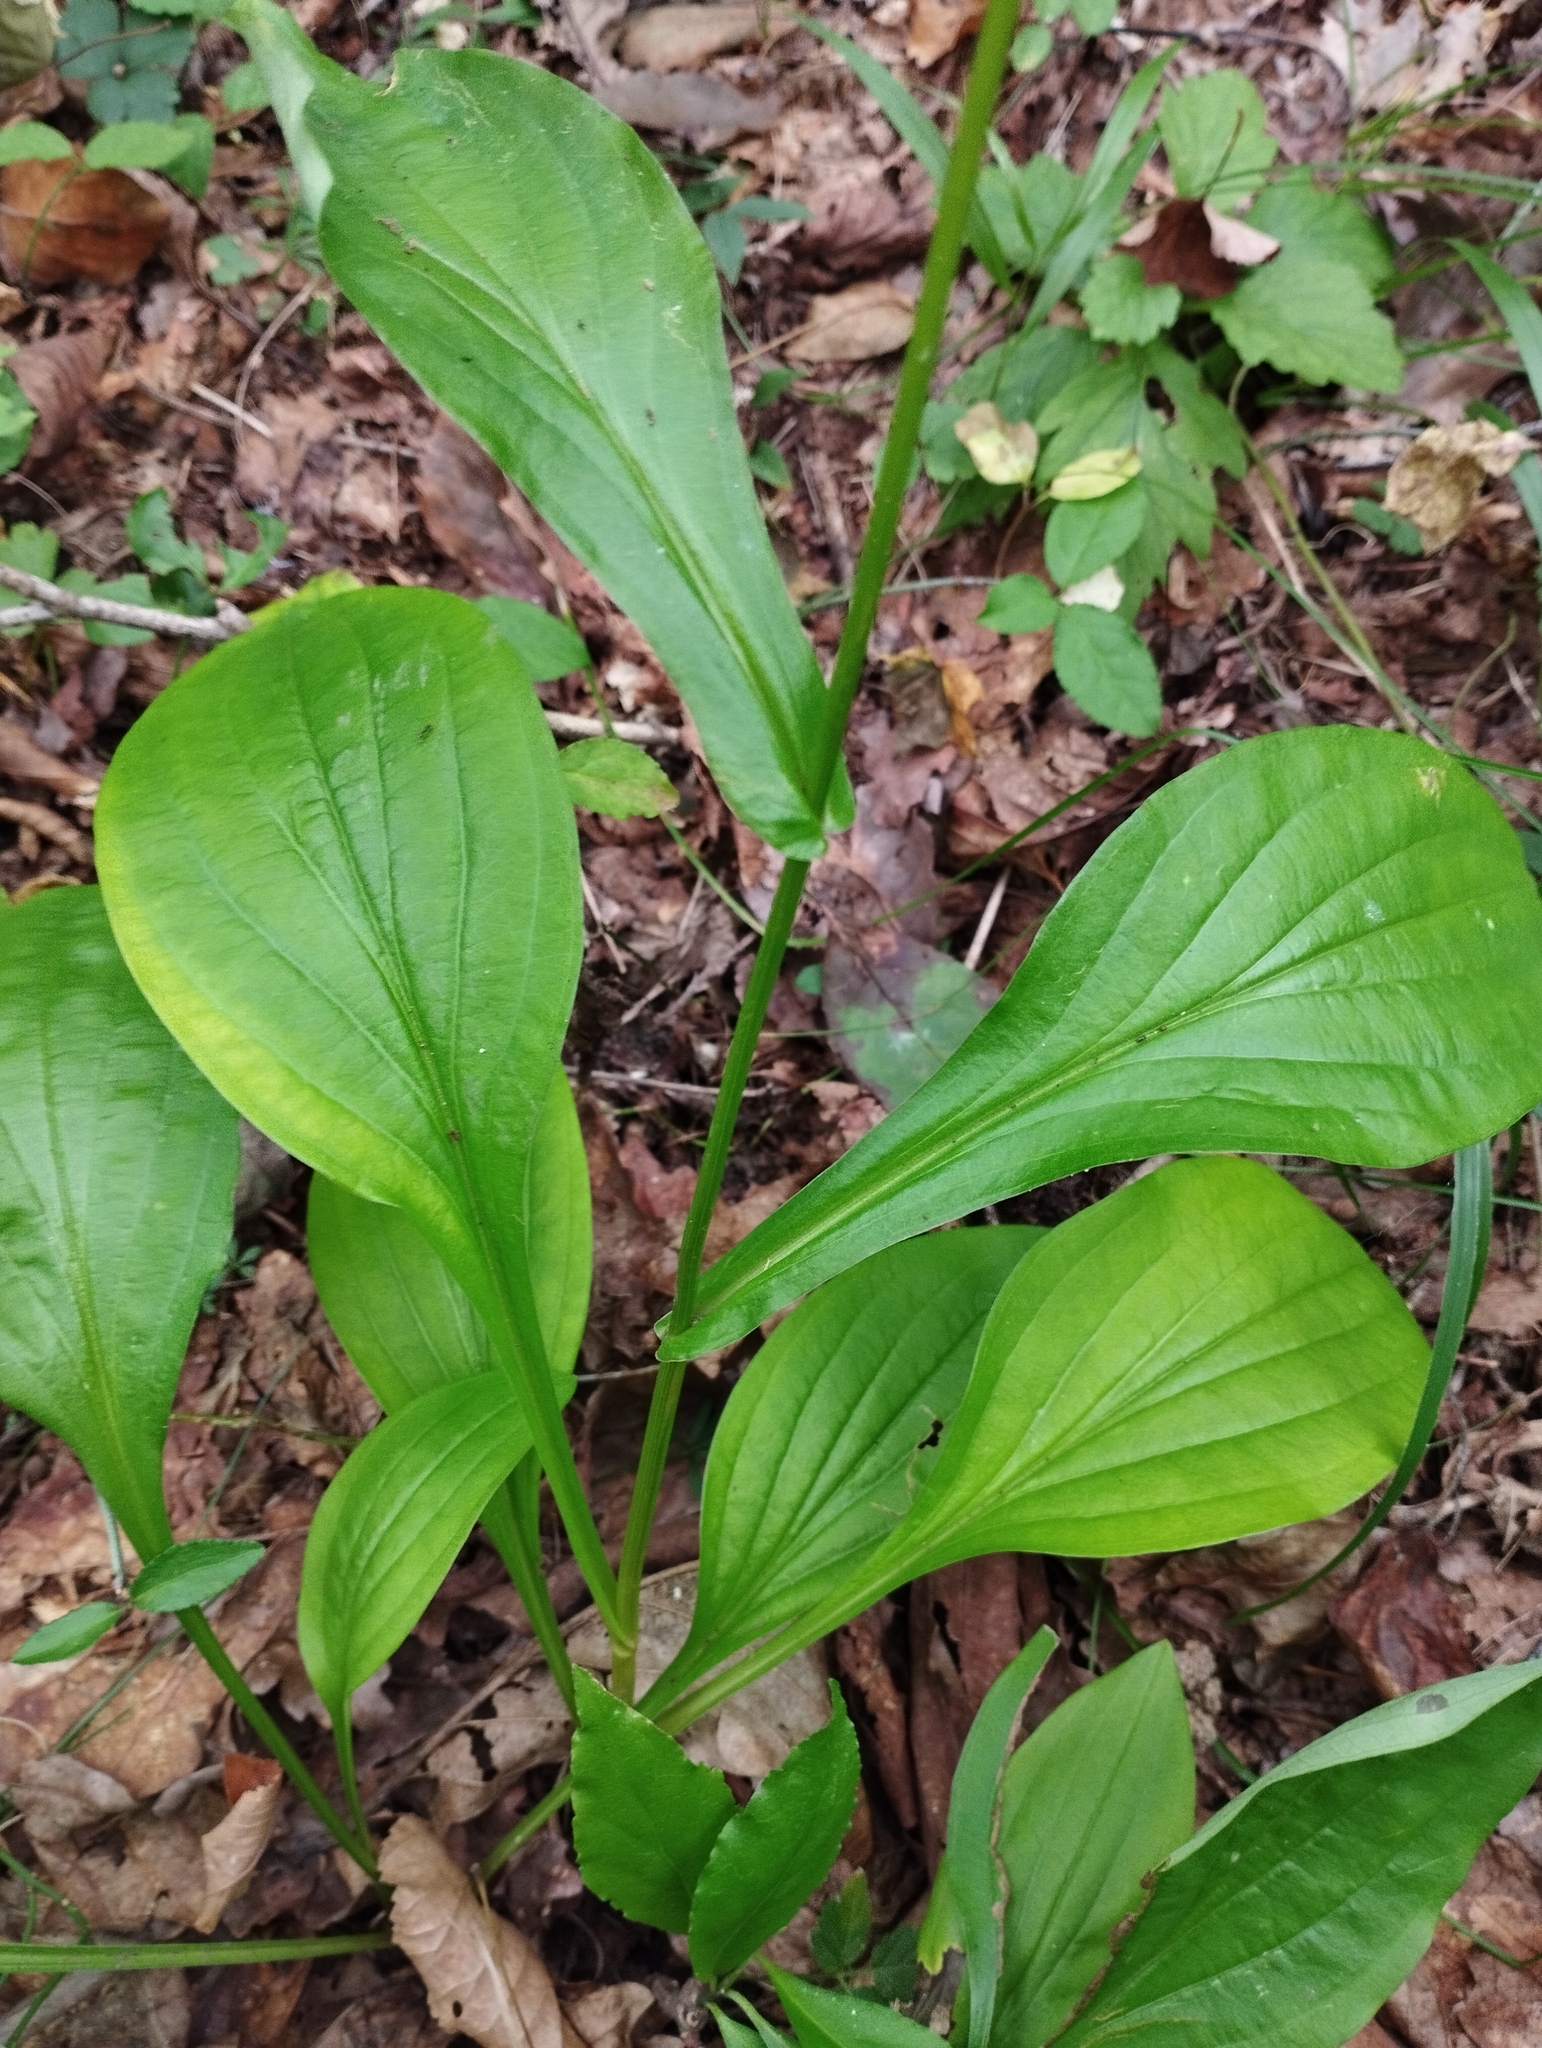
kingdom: Plantae
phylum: Tracheophyta
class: Magnoliopsida
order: Apiales
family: Apiaceae
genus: Bupleurum
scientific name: Bupleurum longiradiatum
